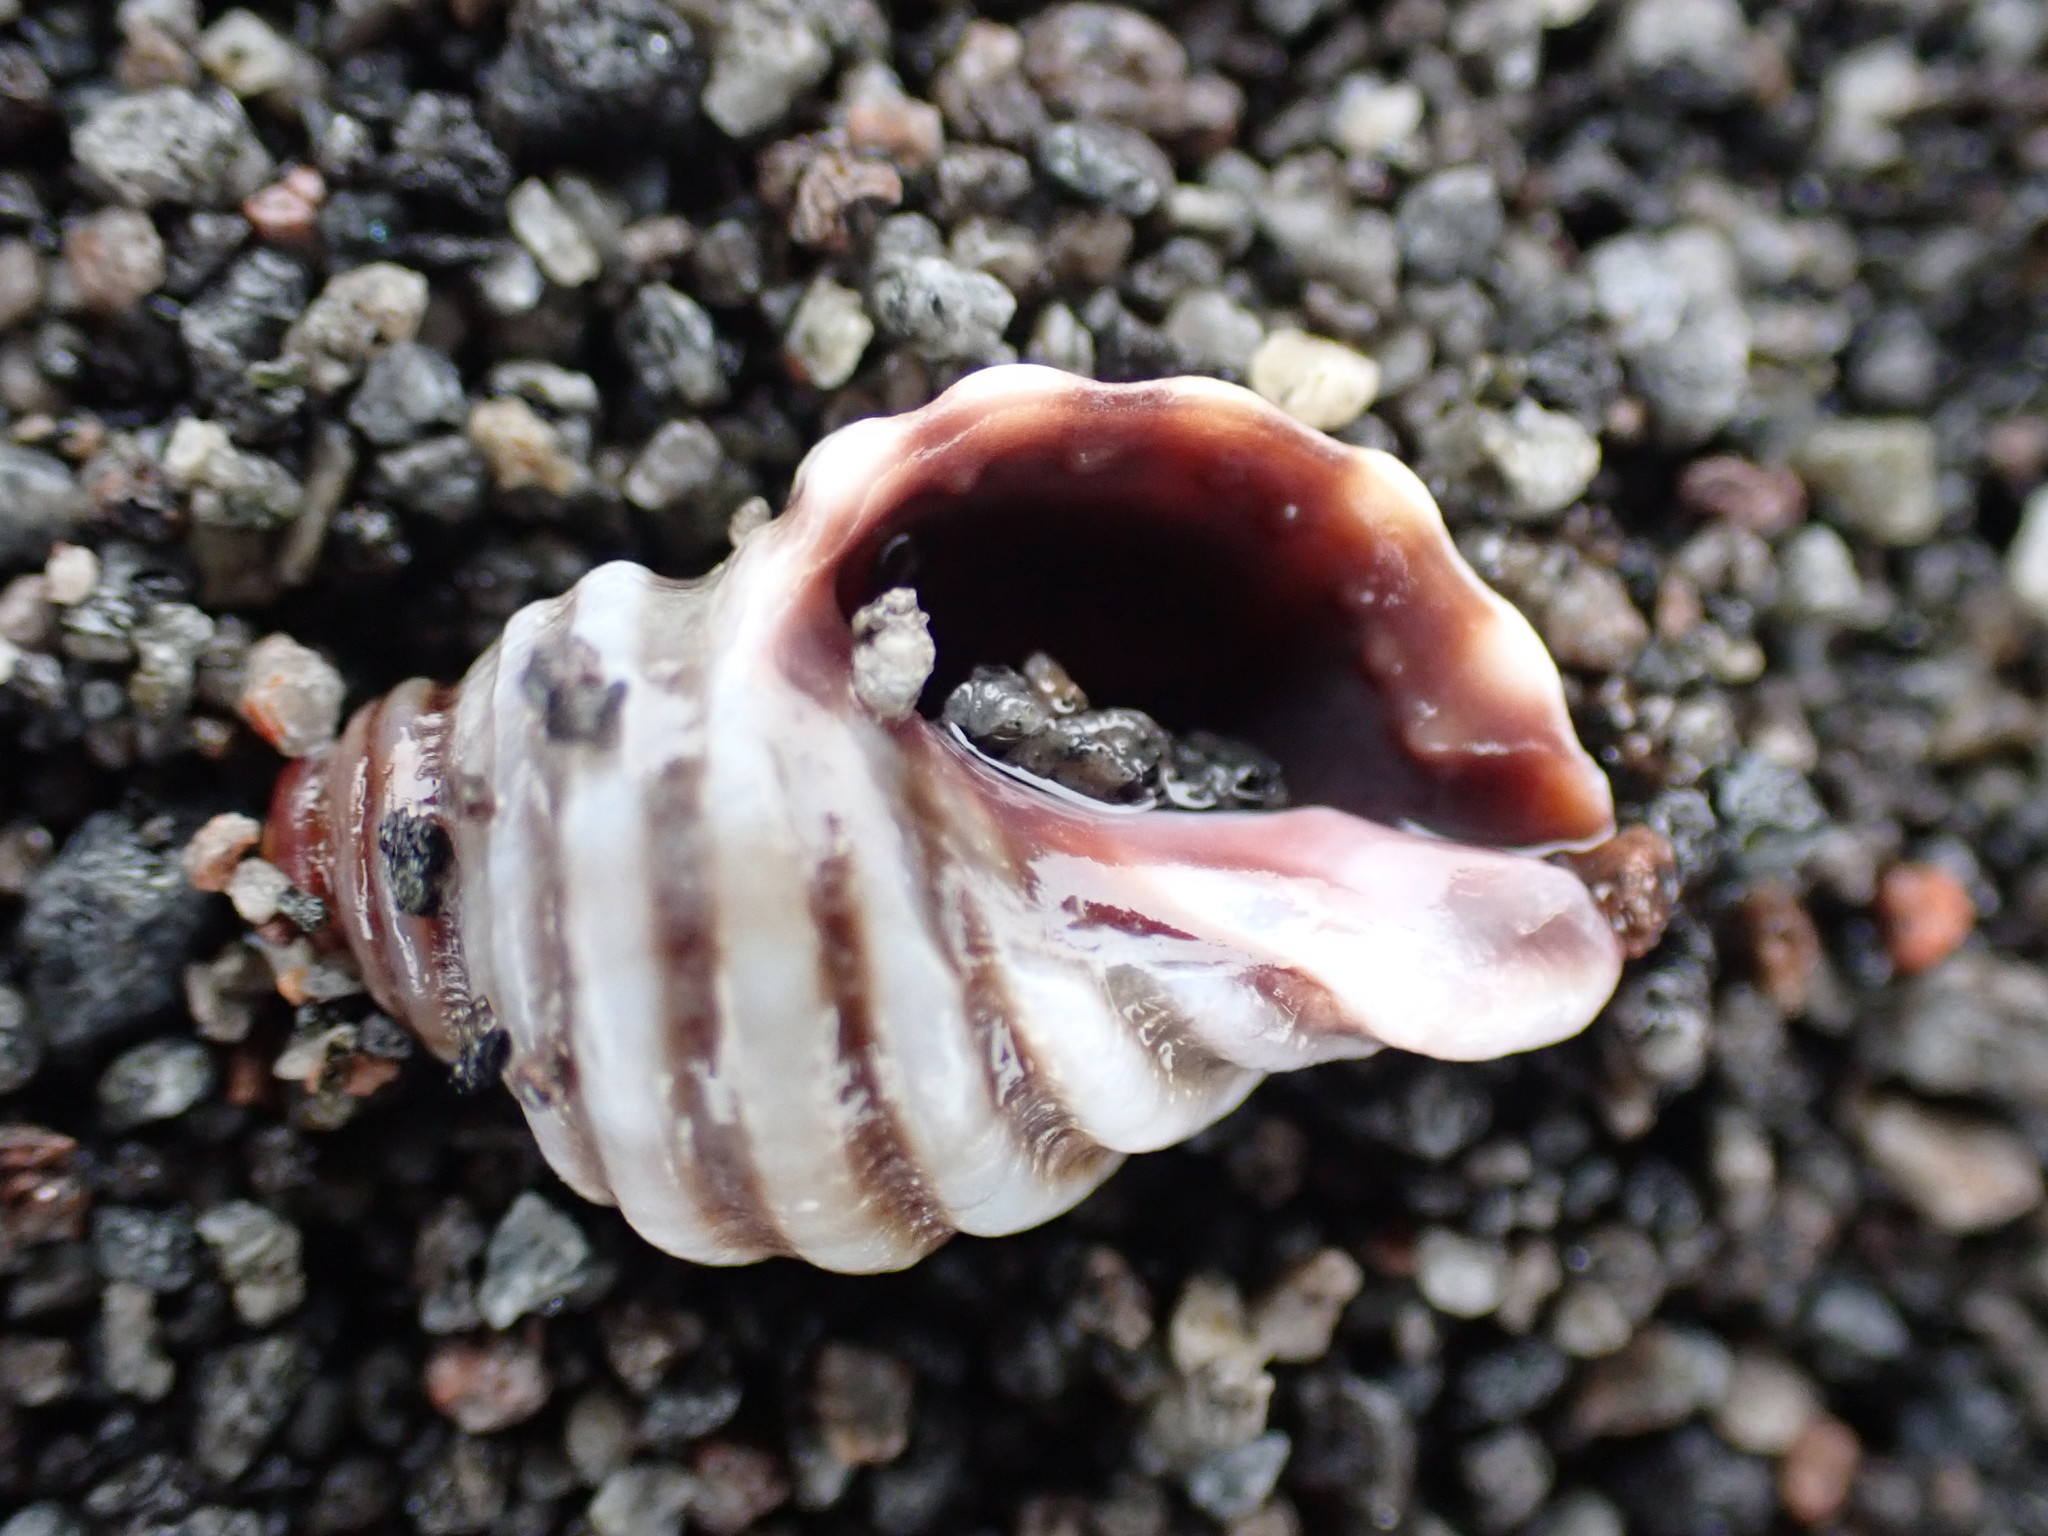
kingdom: Animalia
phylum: Mollusca
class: Gastropoda
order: Neogastropoda
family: Muricidae
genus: Paratrophon
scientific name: Paratrophon cheesemani
